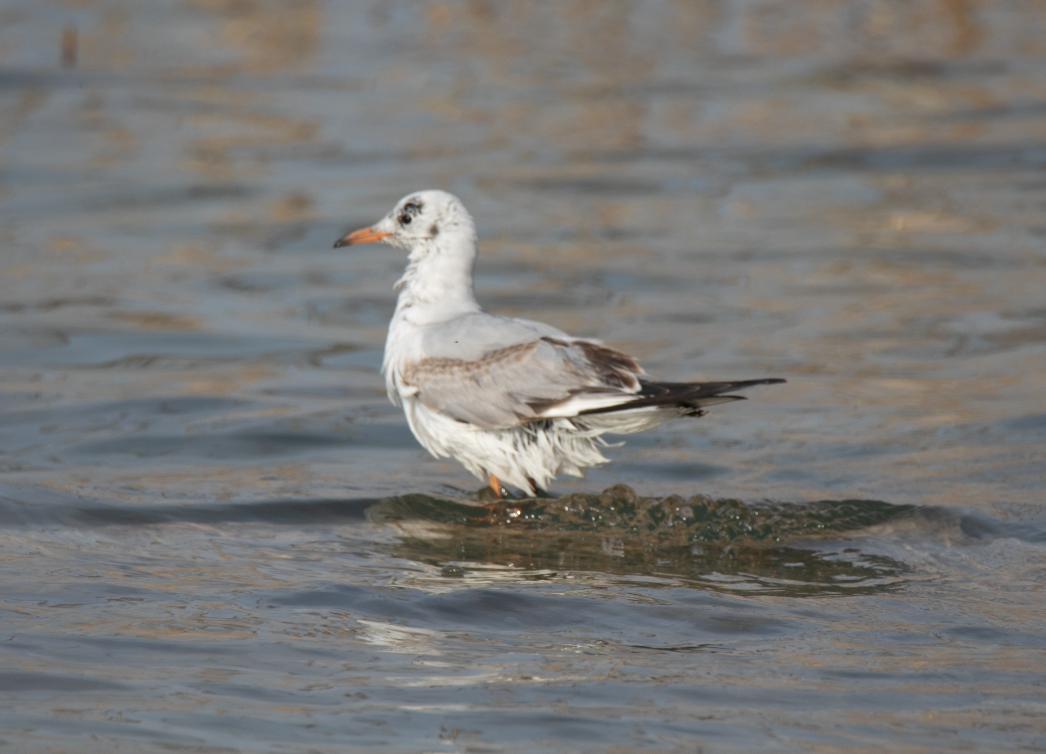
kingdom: Animalia
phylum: Chordata
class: Aves
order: Charadriiformes
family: Laridae
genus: Chroicocephalus
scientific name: Chroicocephalus ridibundus
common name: Black-headed gull
